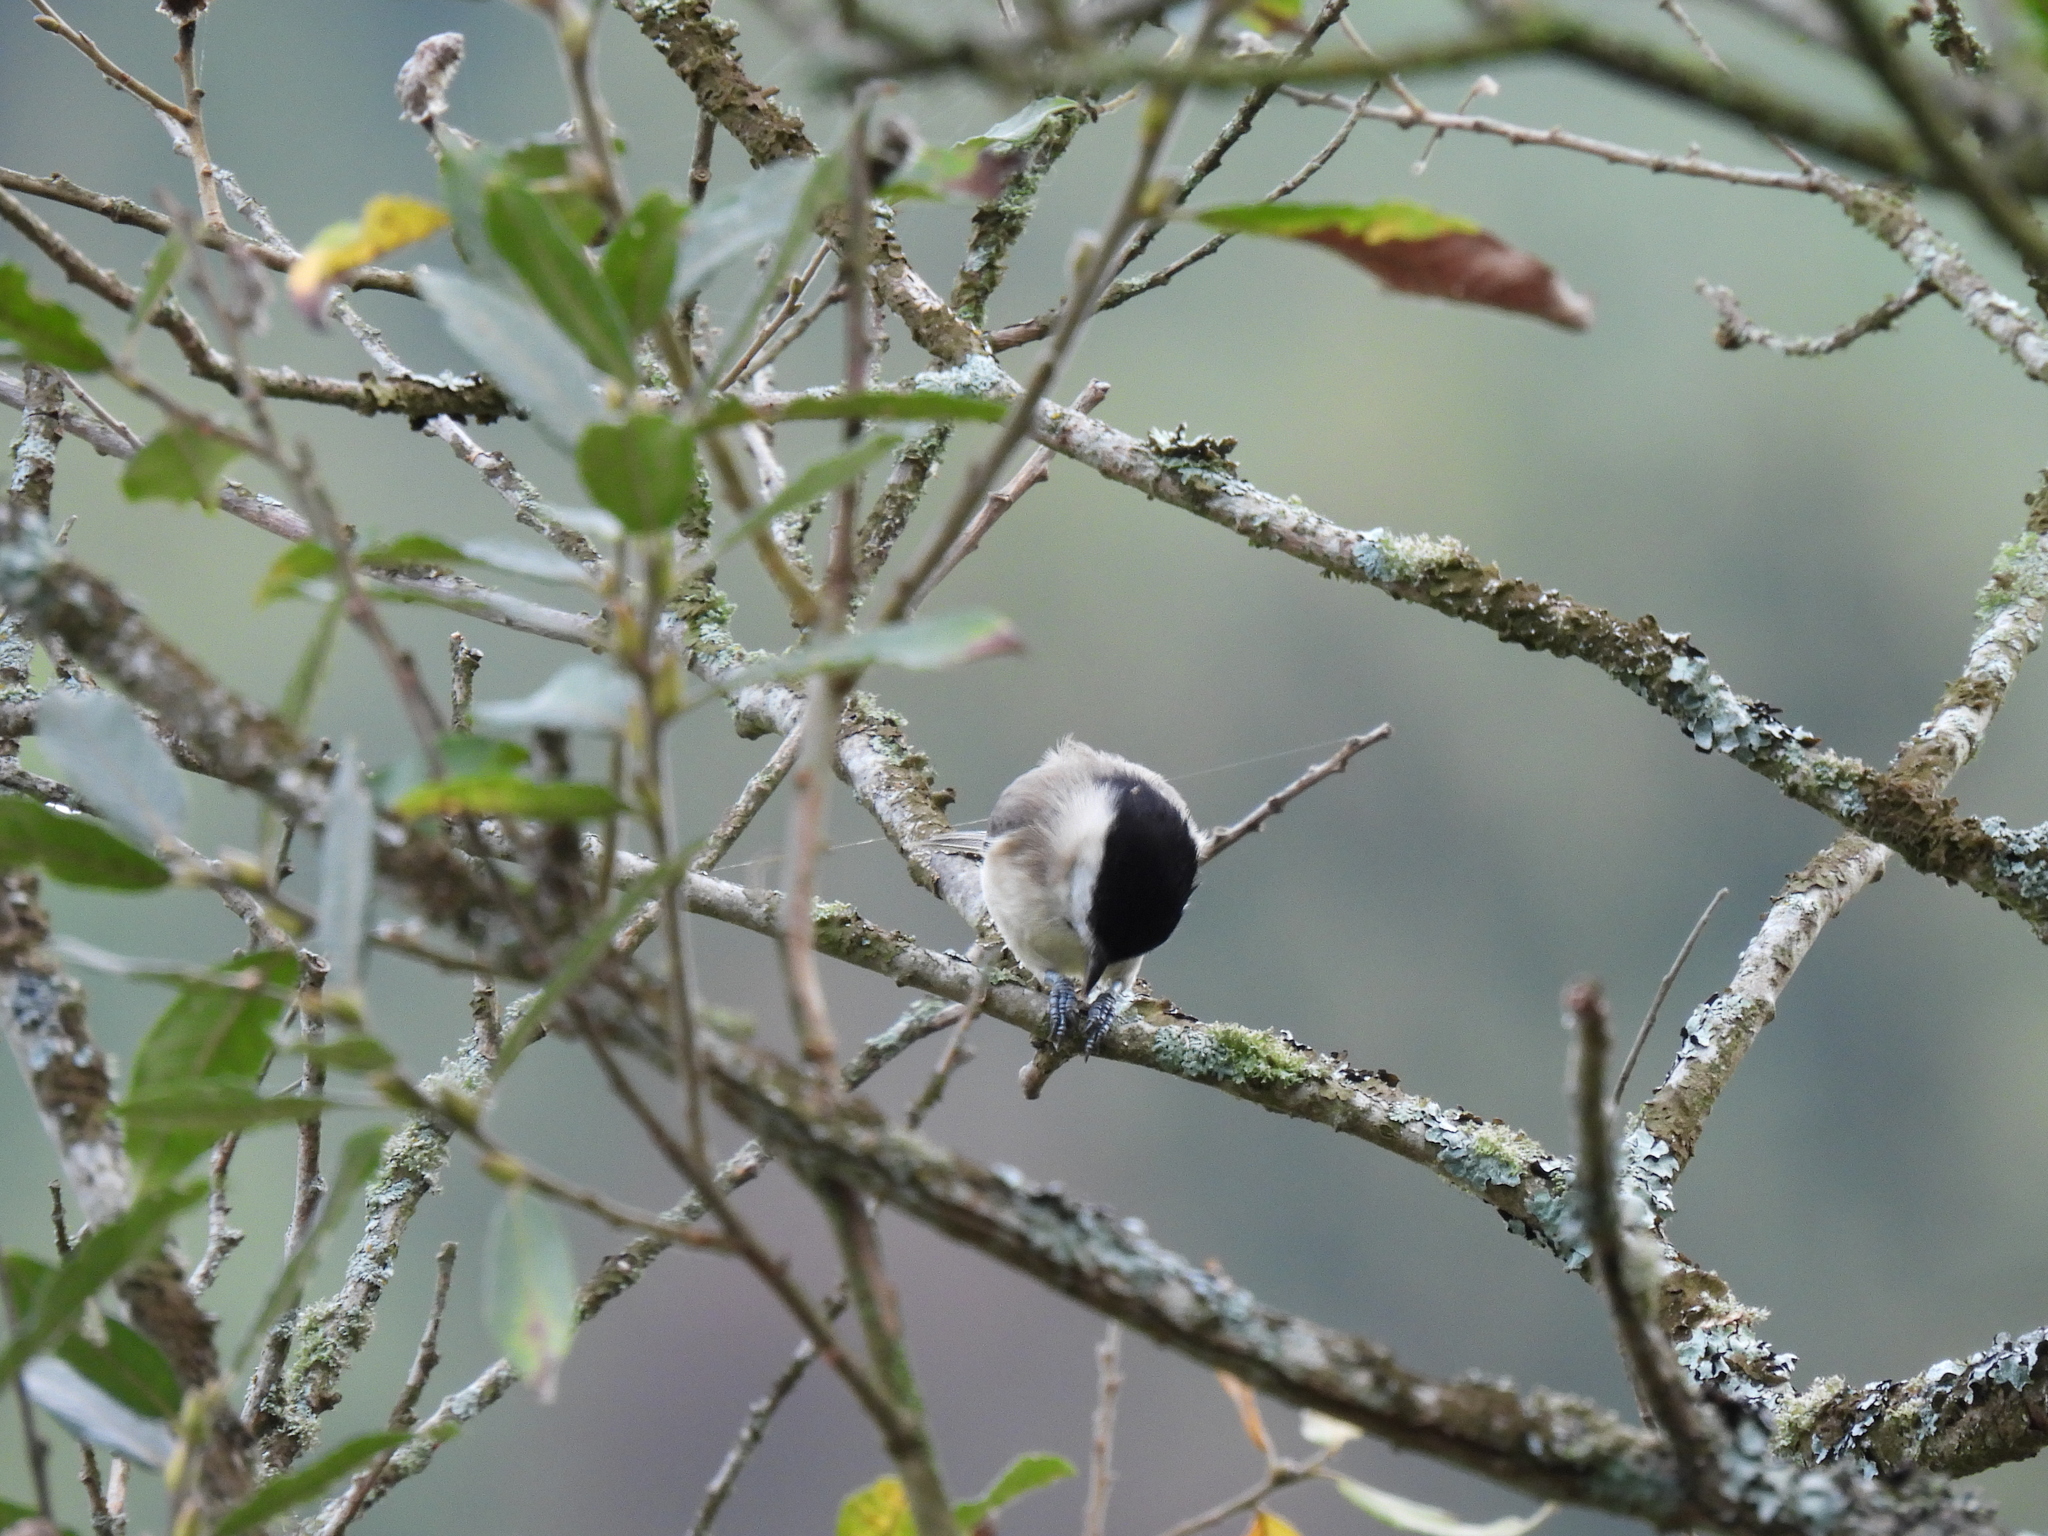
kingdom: Animalia
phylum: Chordata
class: Aves
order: Passeriformes
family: Paridae
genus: Poecile
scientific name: Poecile palustris
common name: Marsh tit
